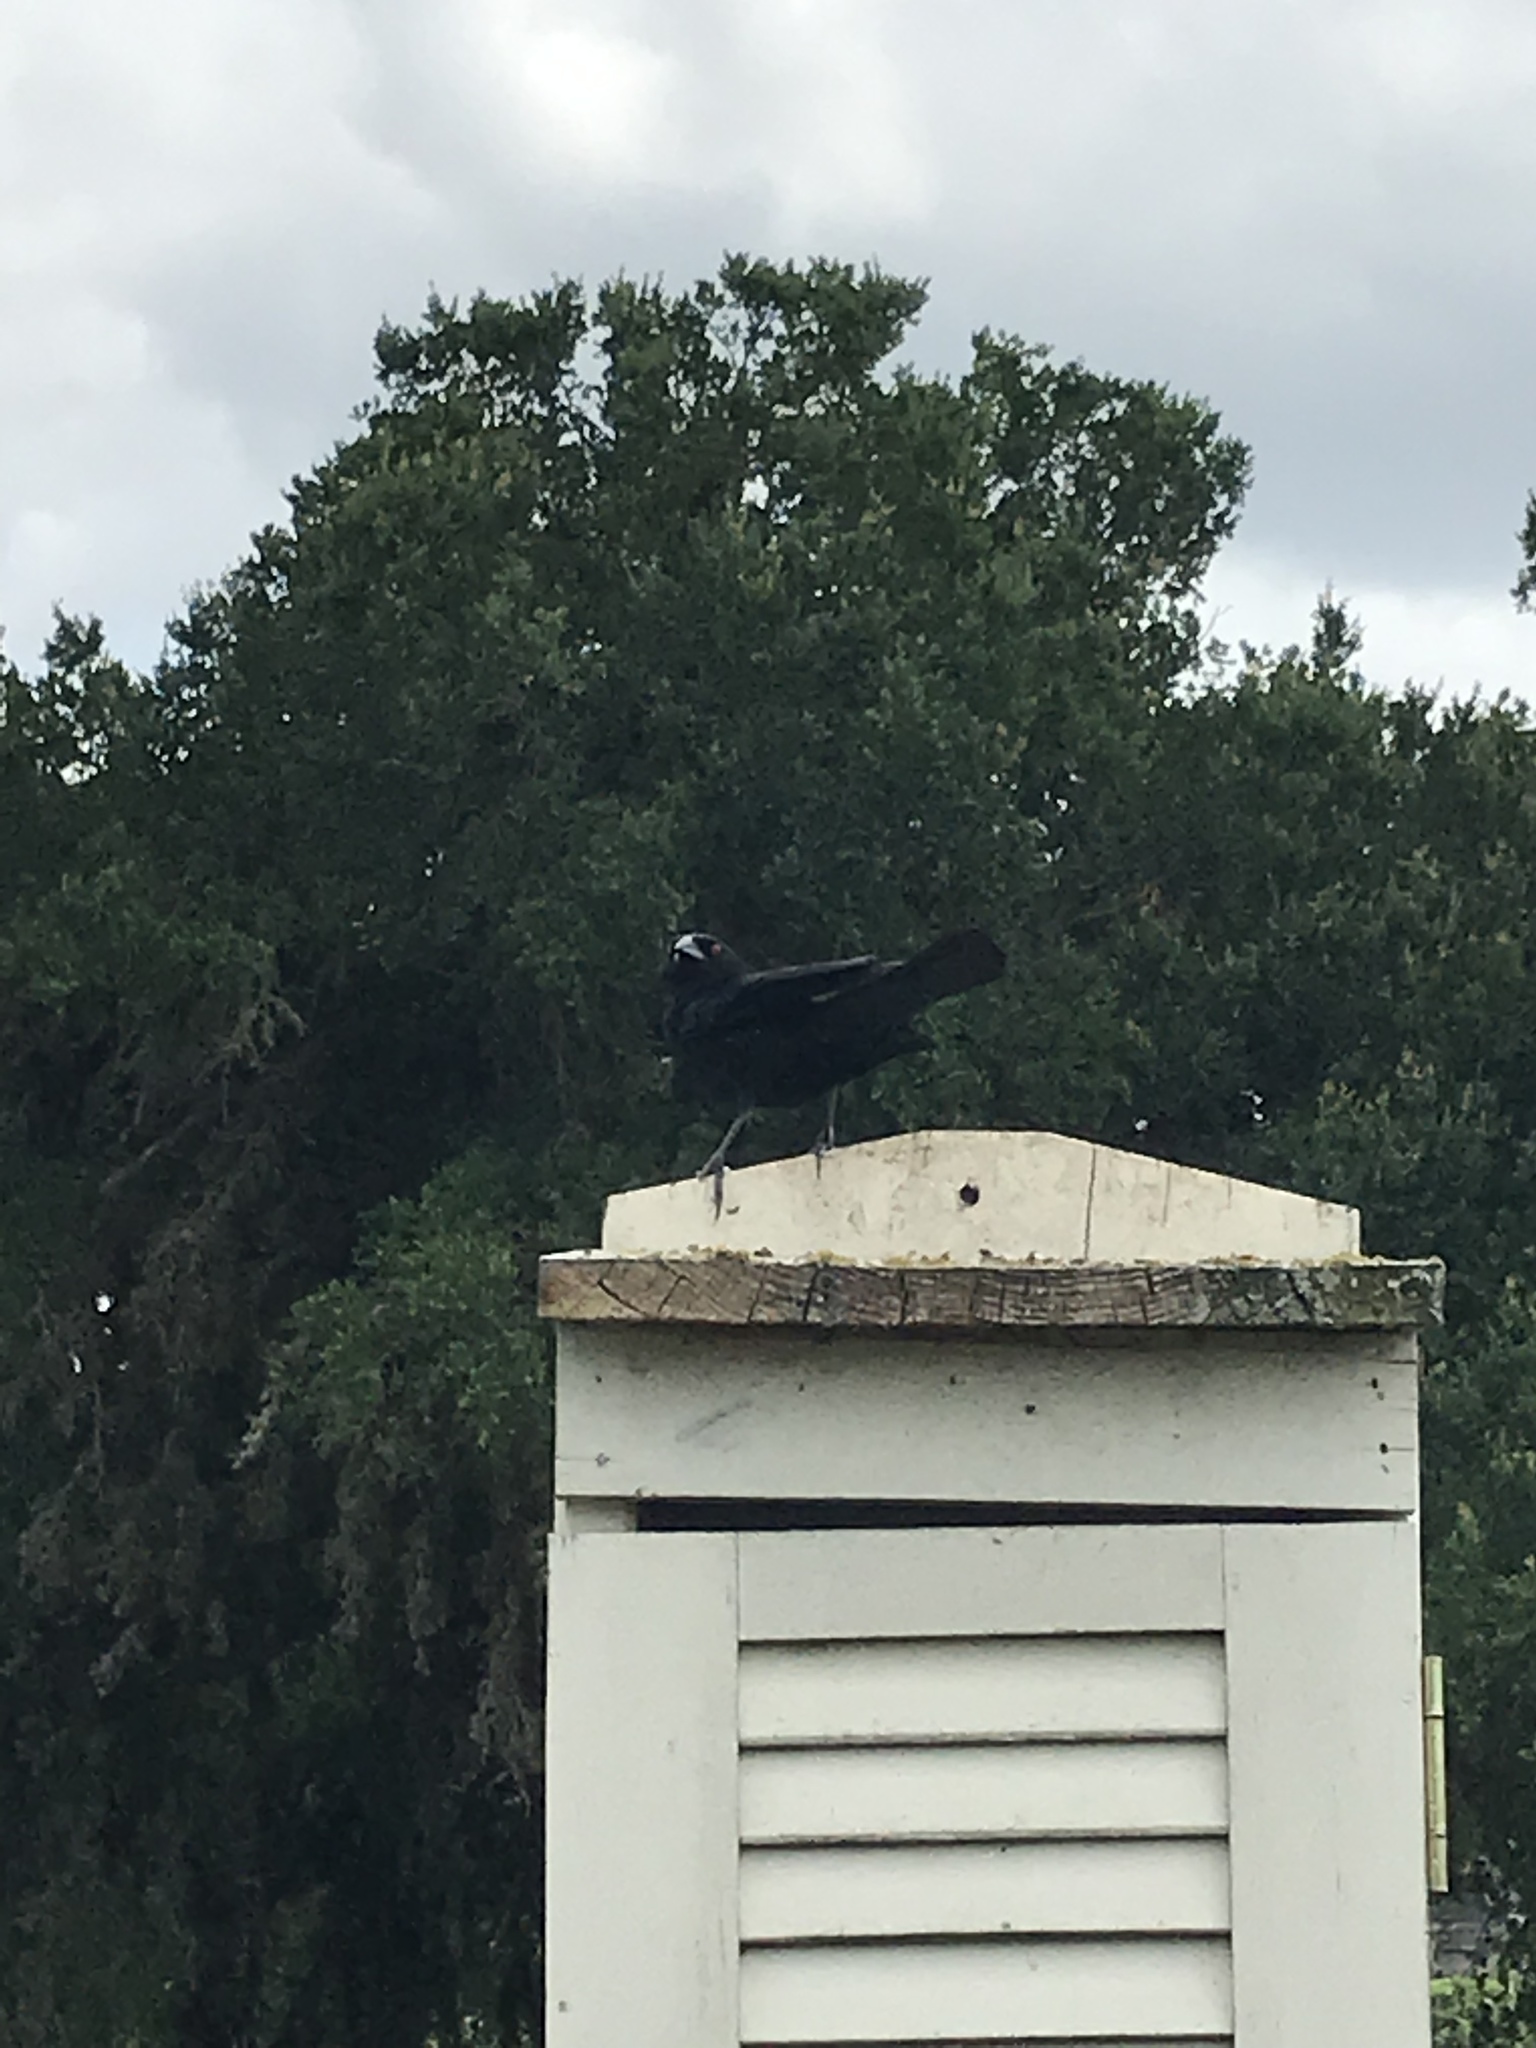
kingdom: Animalia
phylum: Chordata
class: Aves
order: Passeriformes
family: Icteridae
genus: Molothrus
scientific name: Molothrus aeneus
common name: Bronzed cowbird
